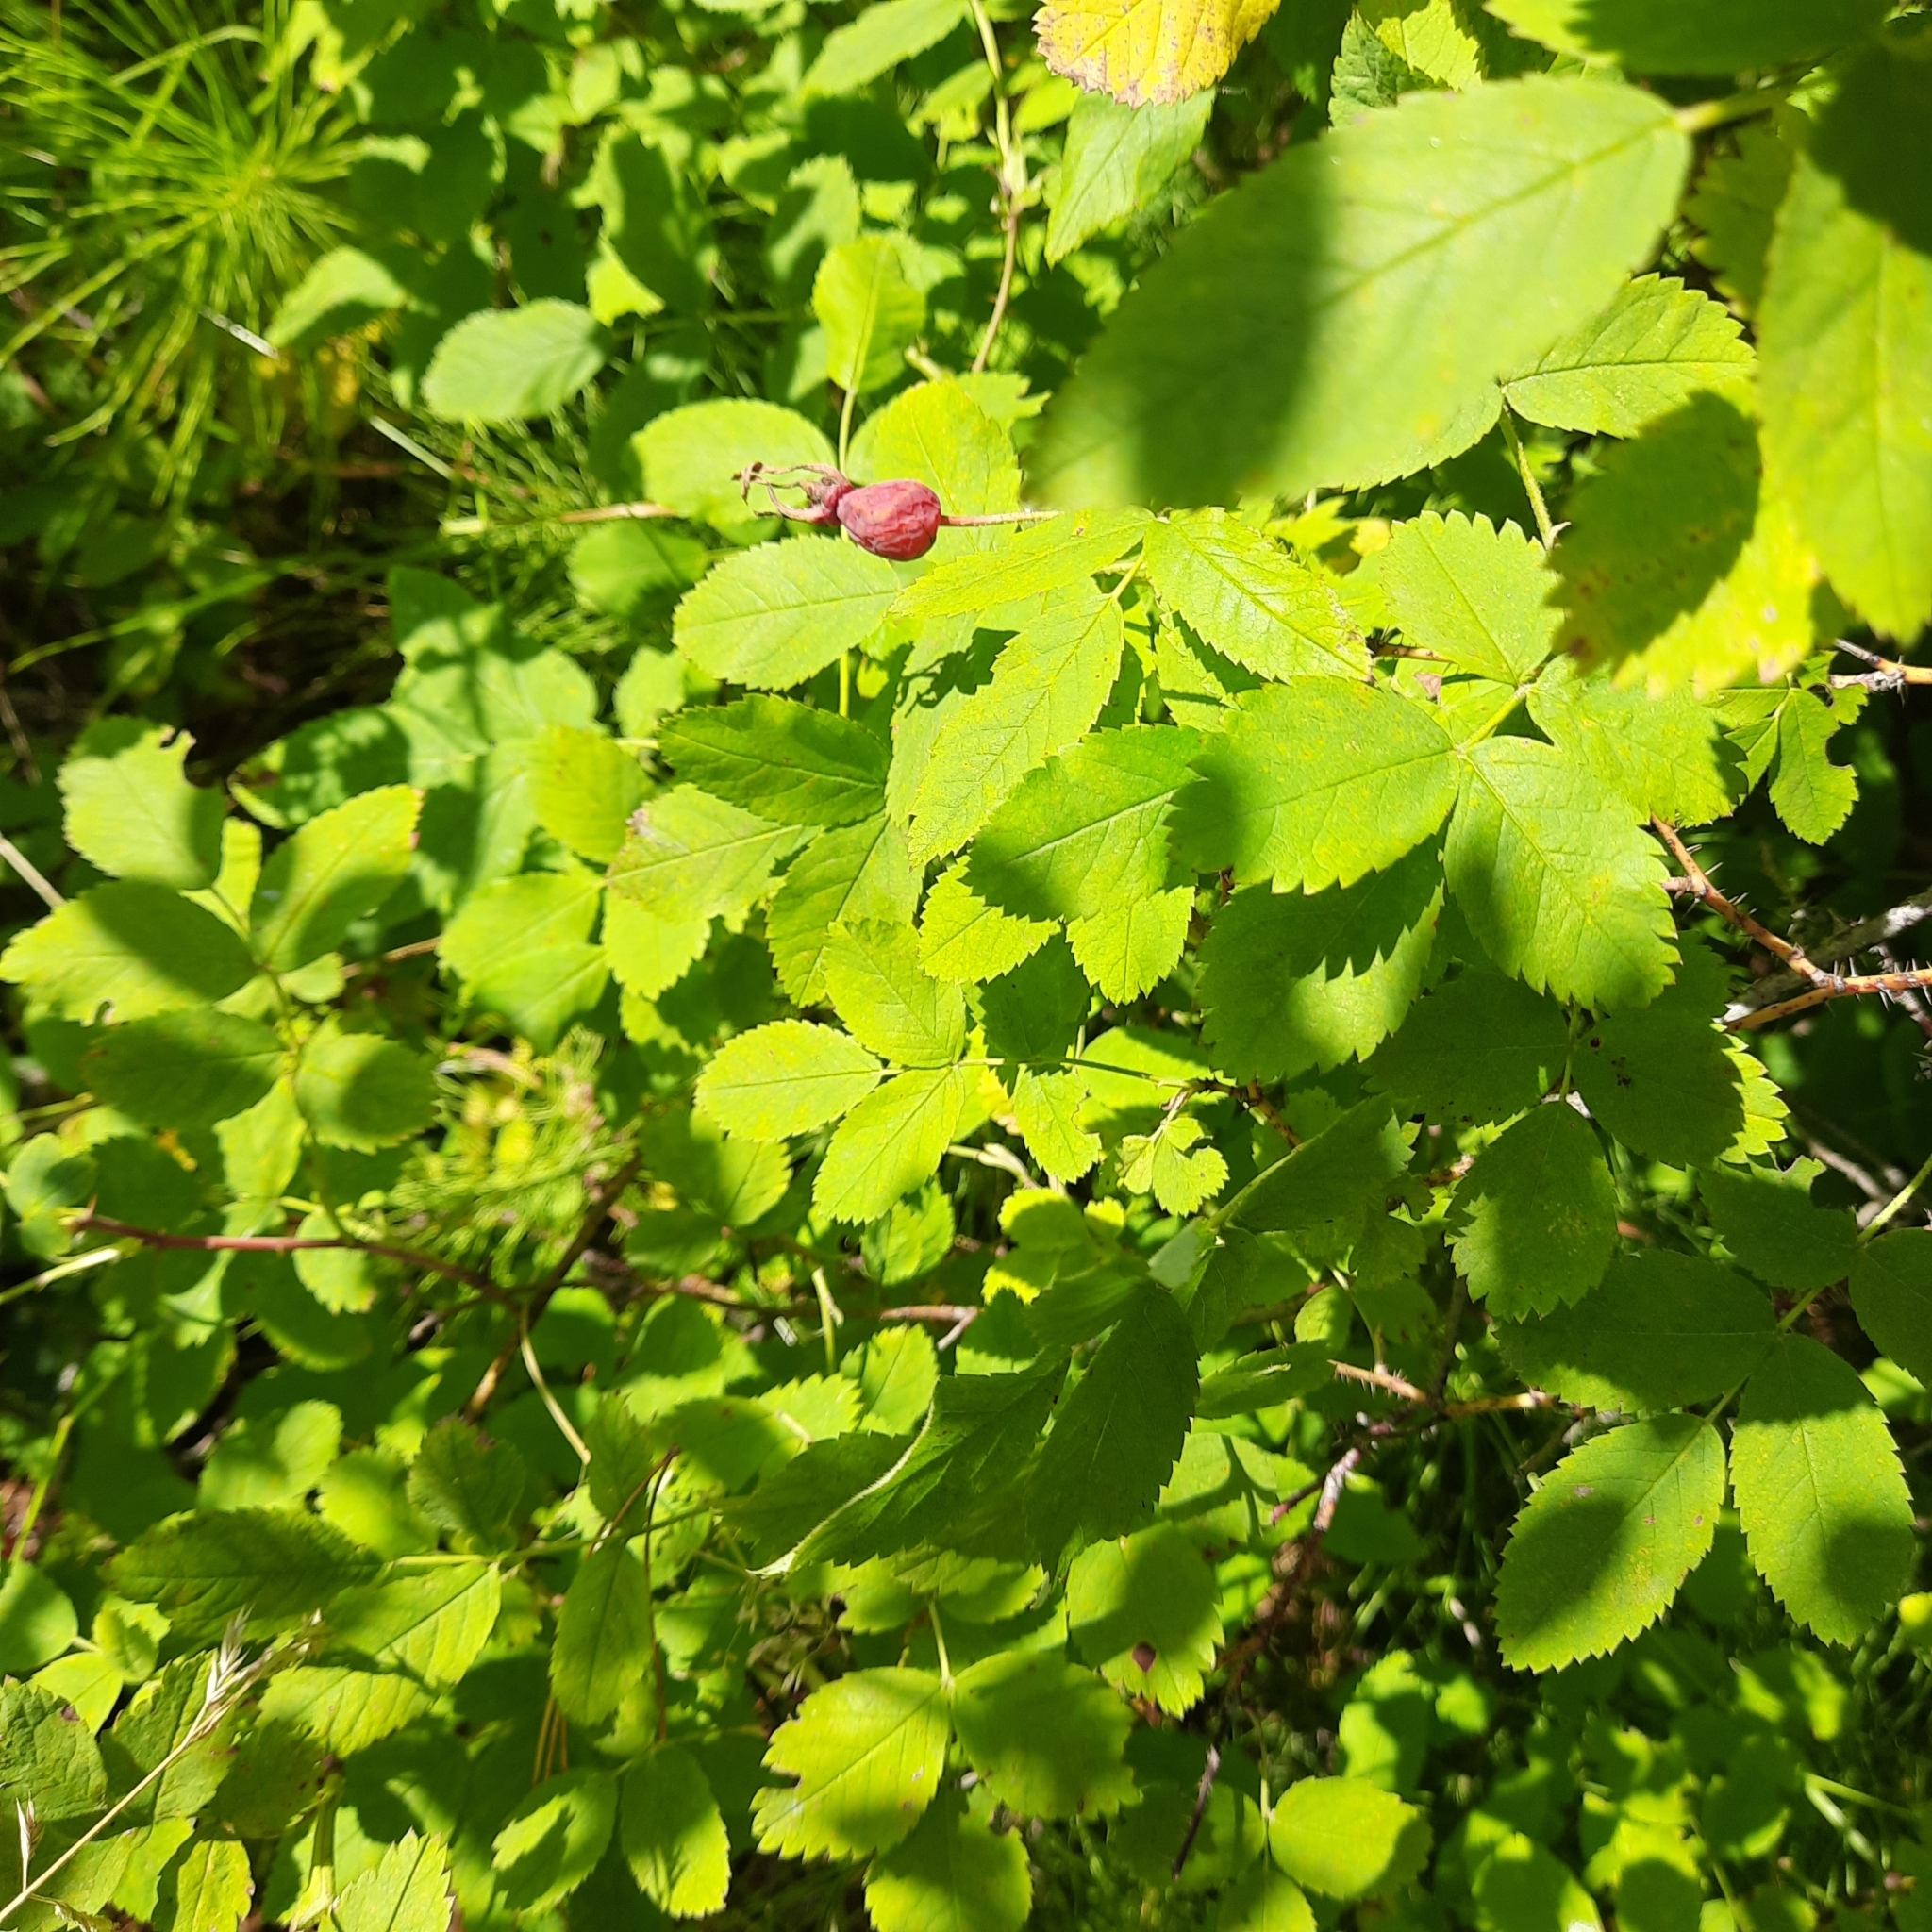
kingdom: Plantae
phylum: Tracheophyta
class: Magnoliopsida
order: Rosales
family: Rosaceae
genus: Rosa
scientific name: Rosa acicularis
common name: Prickly rose
